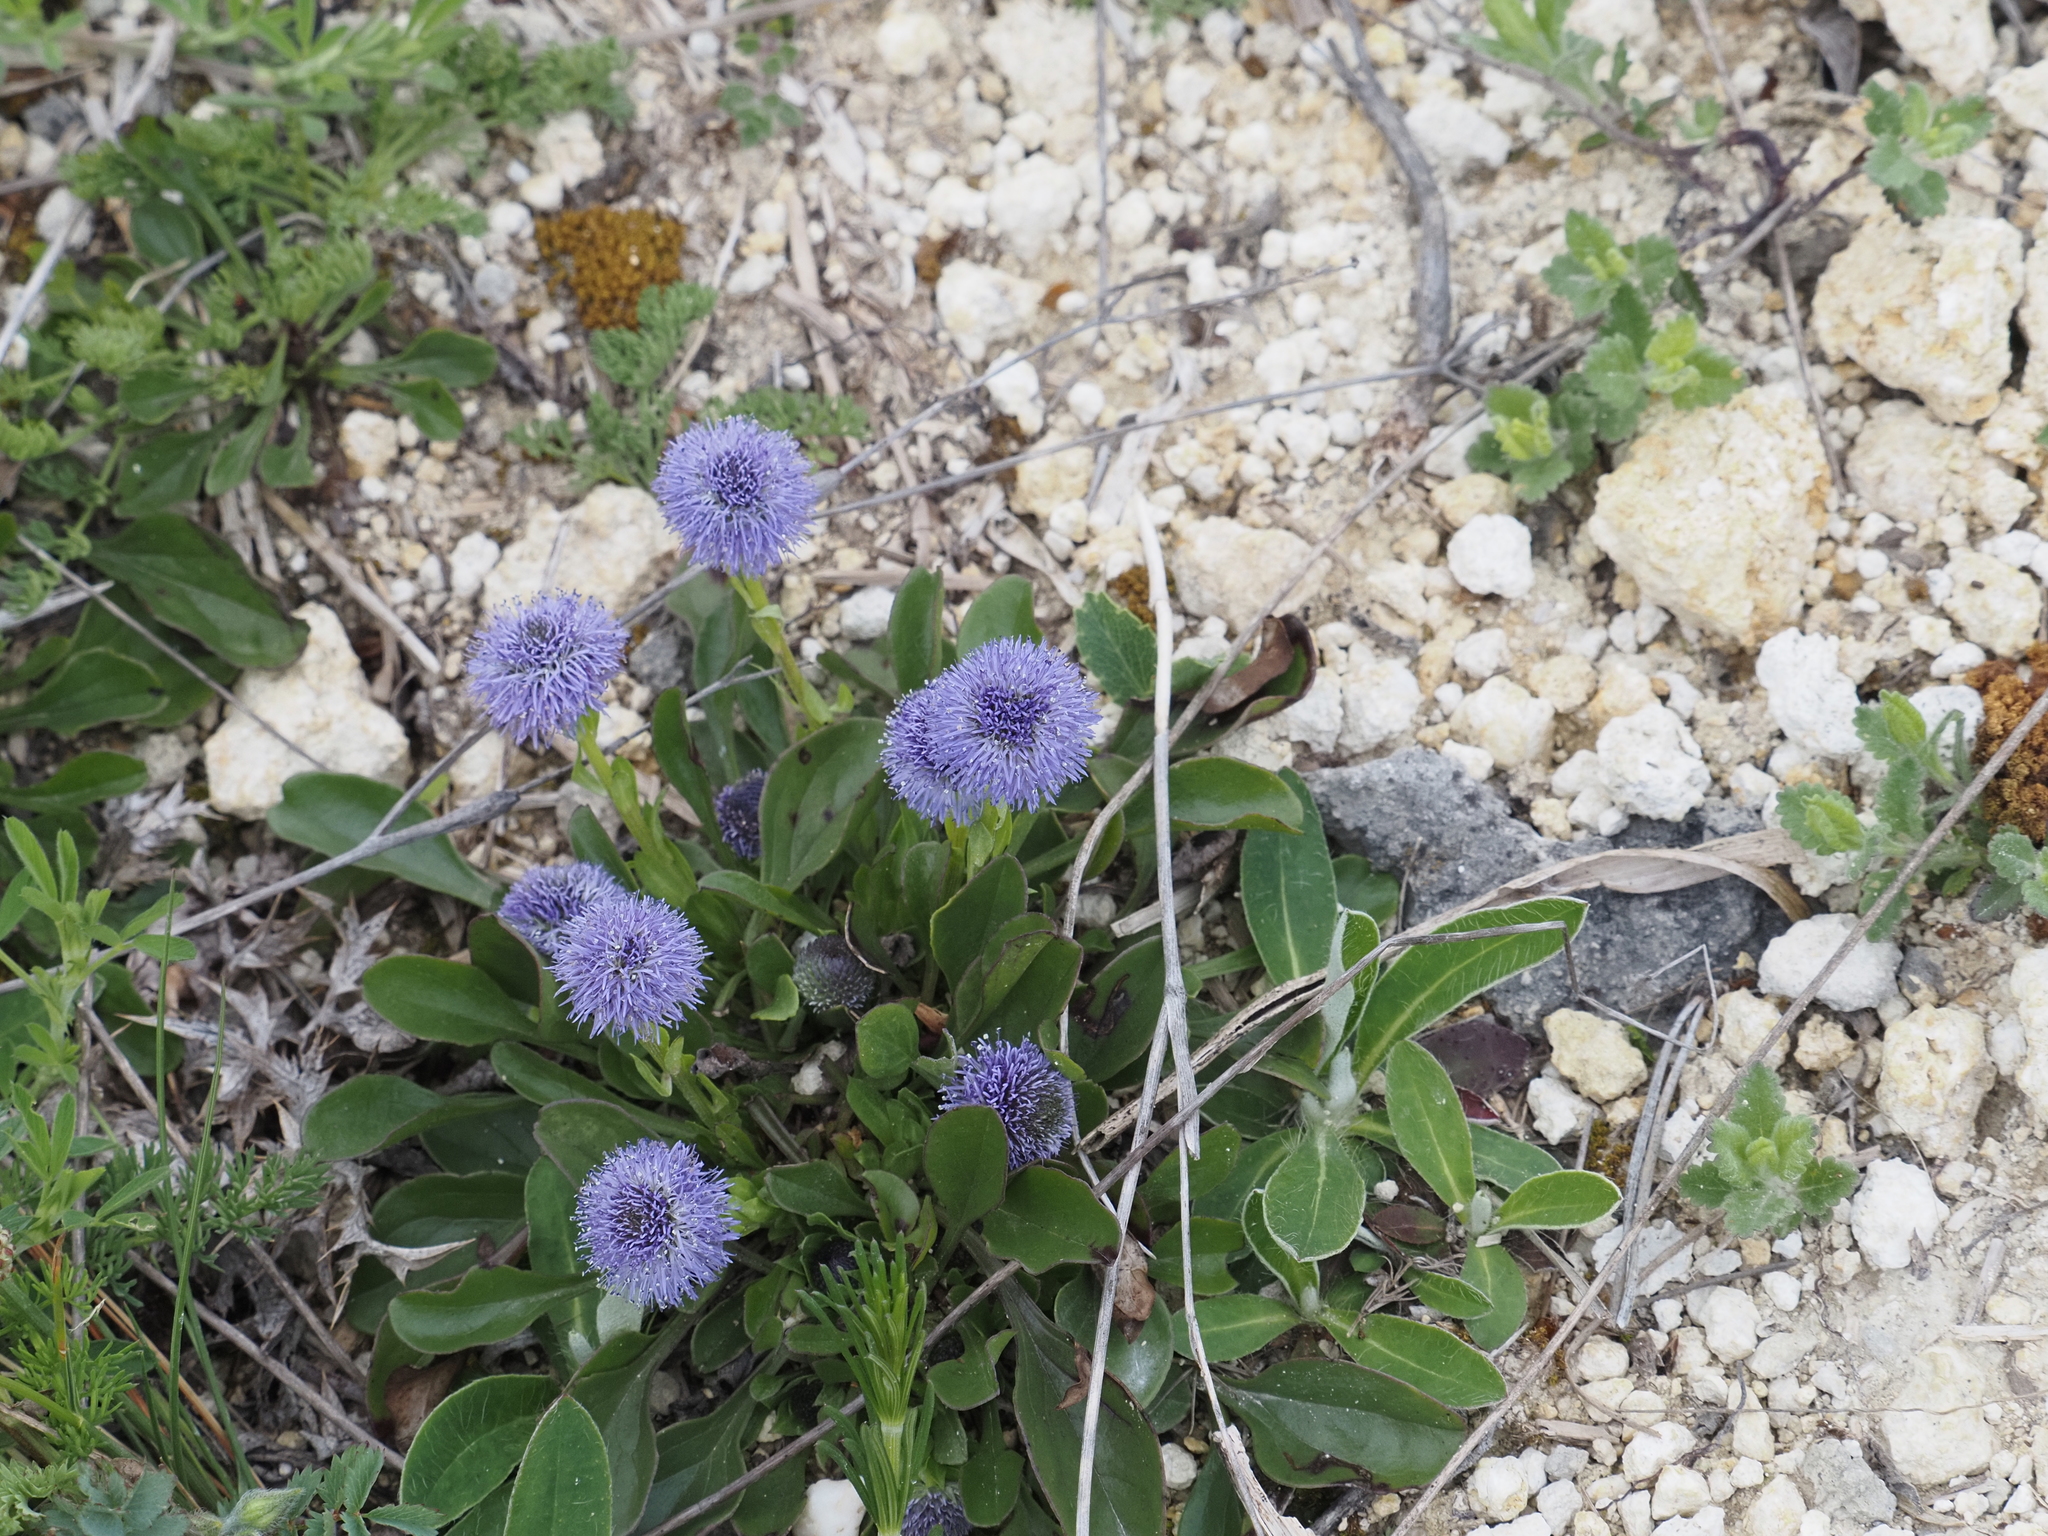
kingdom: Plantae
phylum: Tracheophyta
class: Magnoliopsida
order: Lamiales
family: Plantaginaceae
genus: Globularia
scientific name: Globularia bisnagarica
